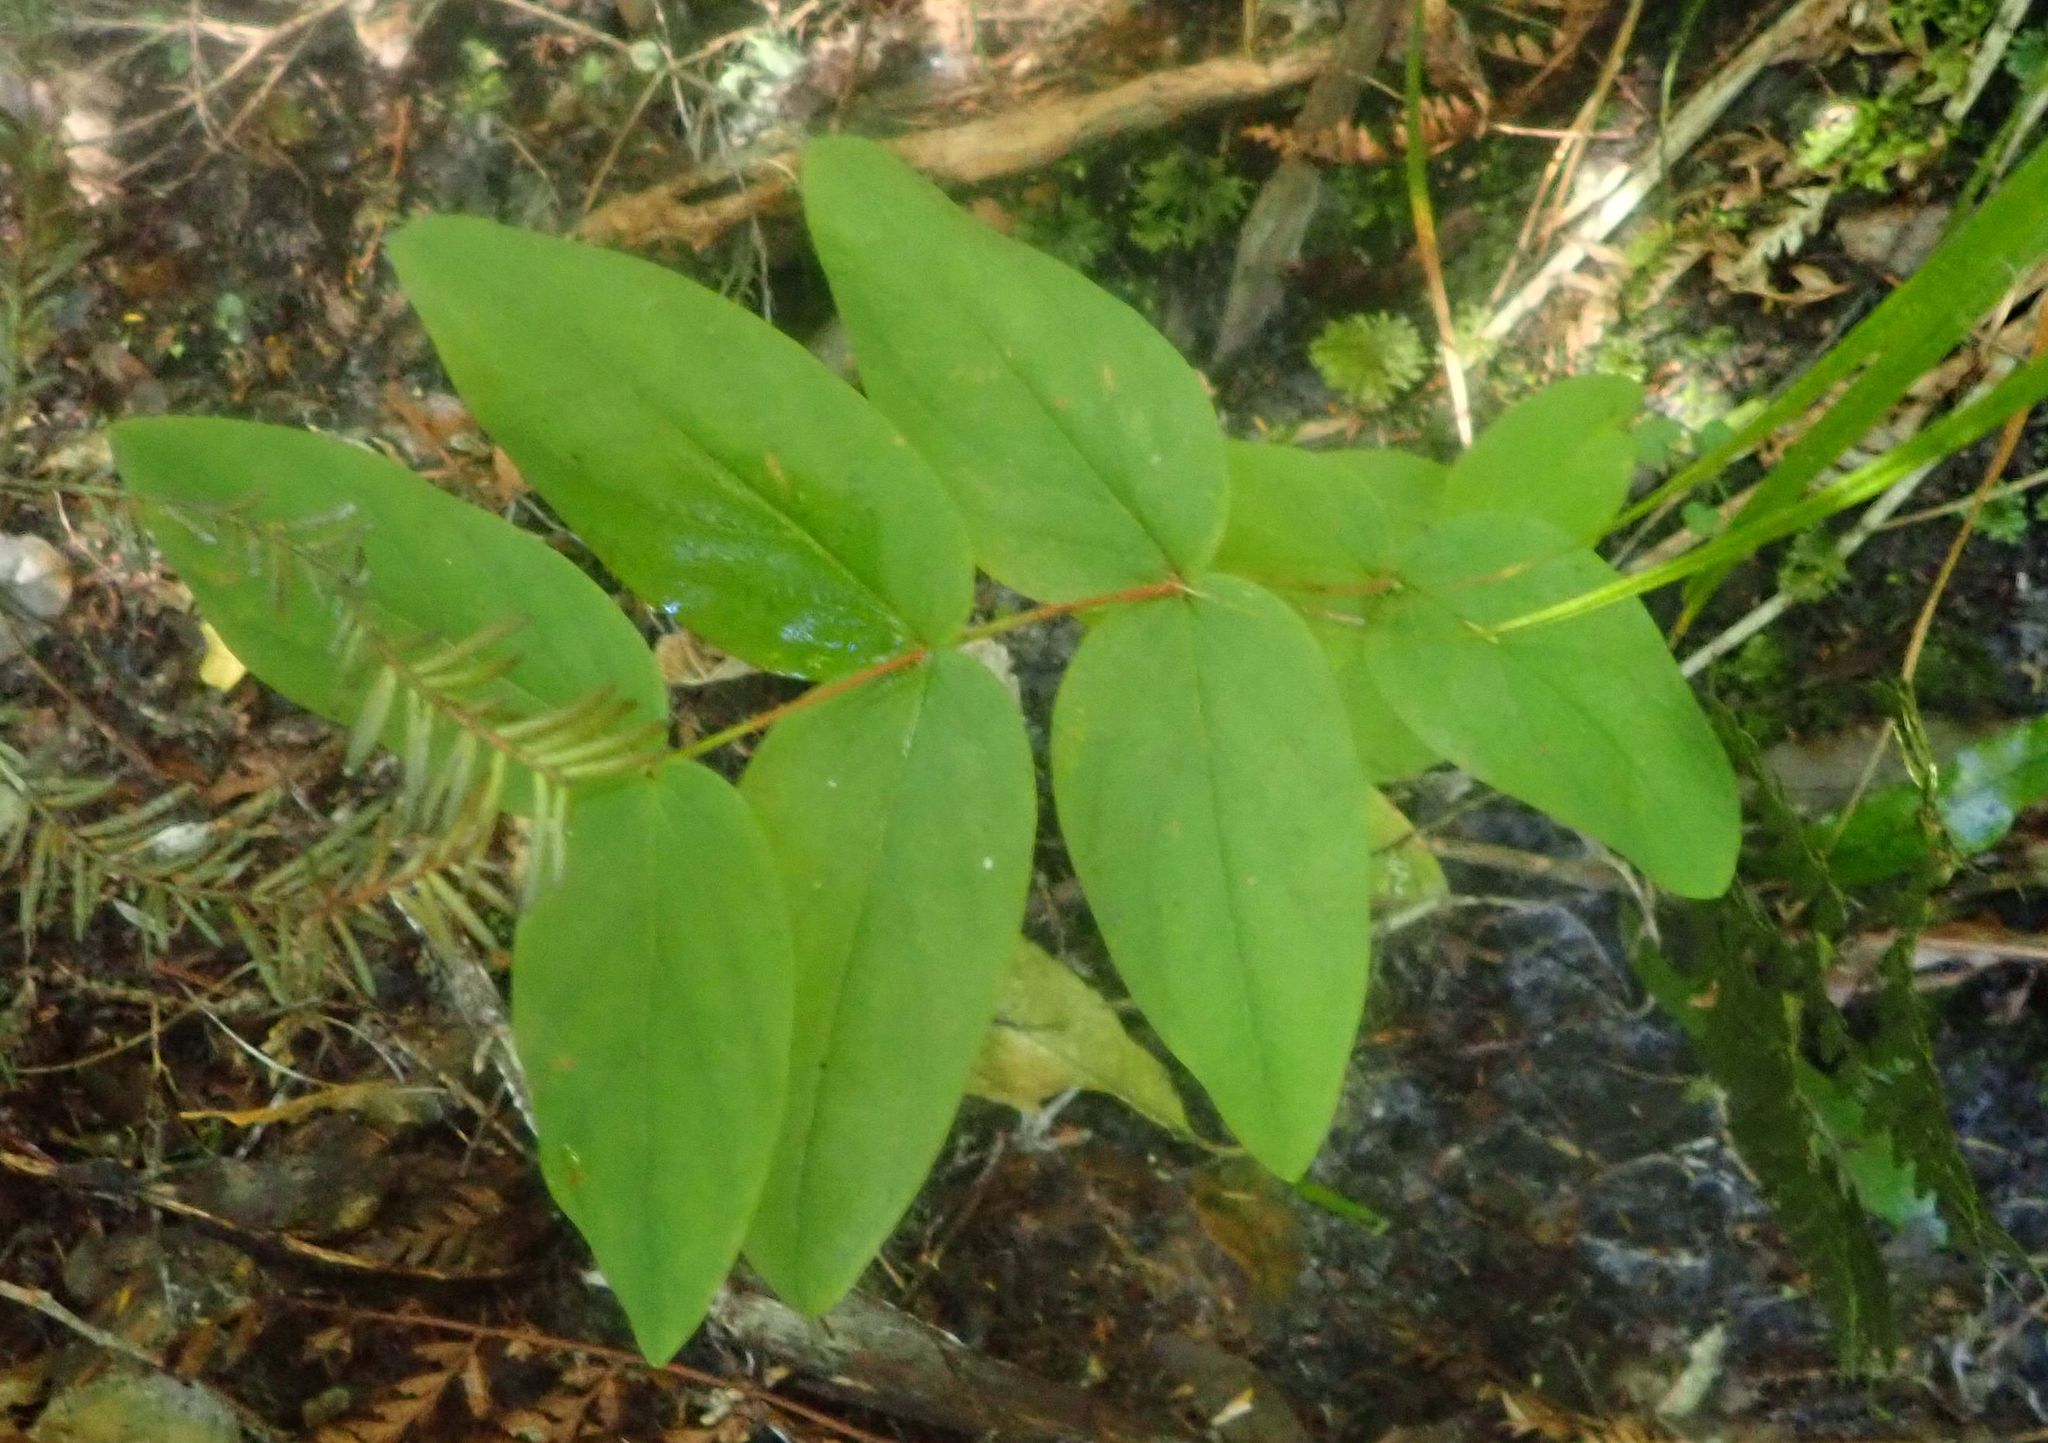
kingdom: Plantae
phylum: Tracheophyta
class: Magnoliopsida
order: Malpighiales
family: Hypericaceae
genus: Hypericum
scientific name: Hypericum androsaemum
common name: Sweet-amber
